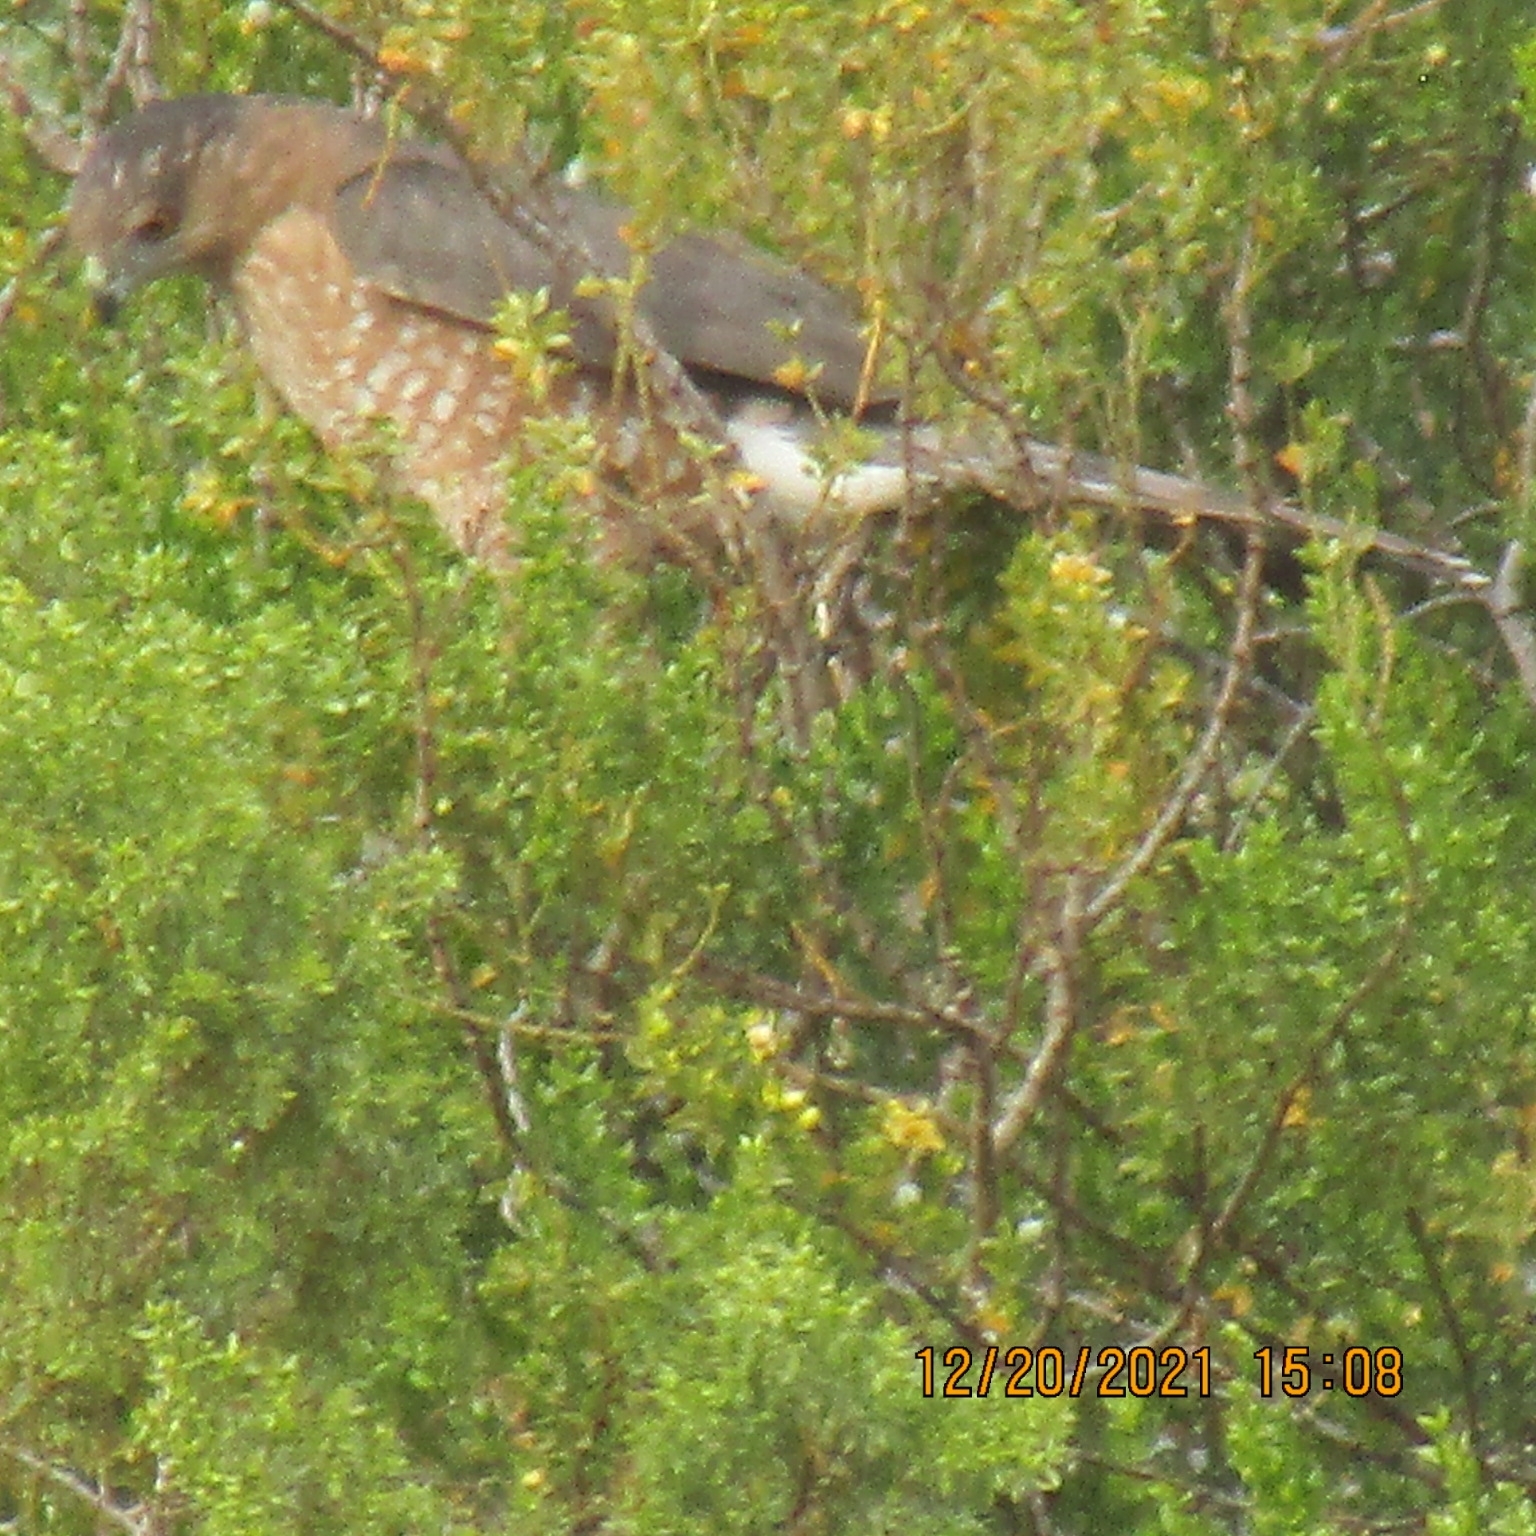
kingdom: Animalia
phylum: Chordata
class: Aves
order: Accipitriformes
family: Accipitridae
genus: Accipiter
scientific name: Accipiter cooperii
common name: Cooper's hawk
